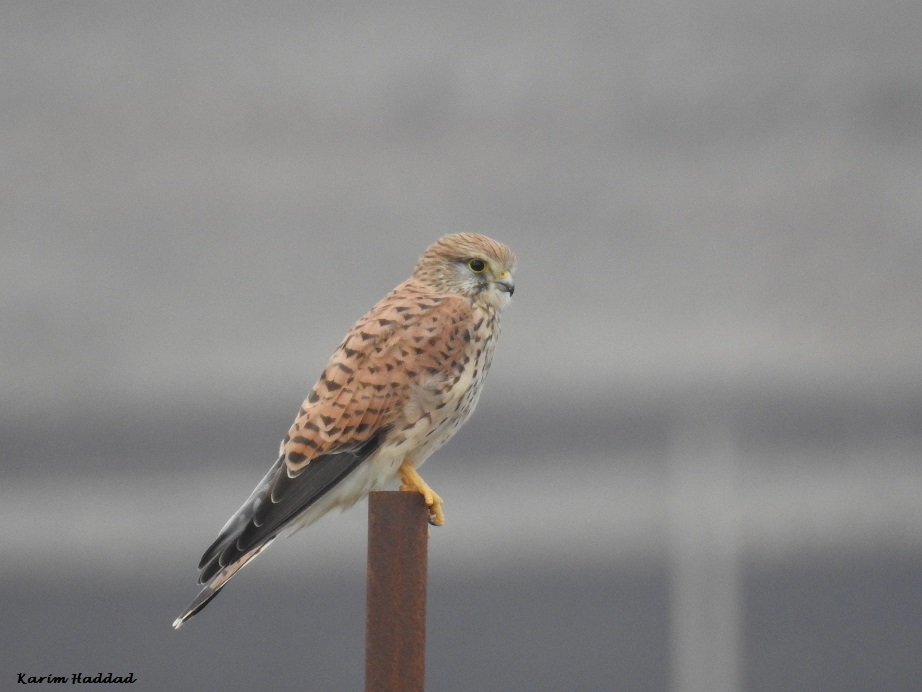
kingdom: Animalia
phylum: Chordata
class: Aves
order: Falconiformes
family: Falconidae
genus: Falco
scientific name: Falco tinnunculus
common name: Common kestrel
